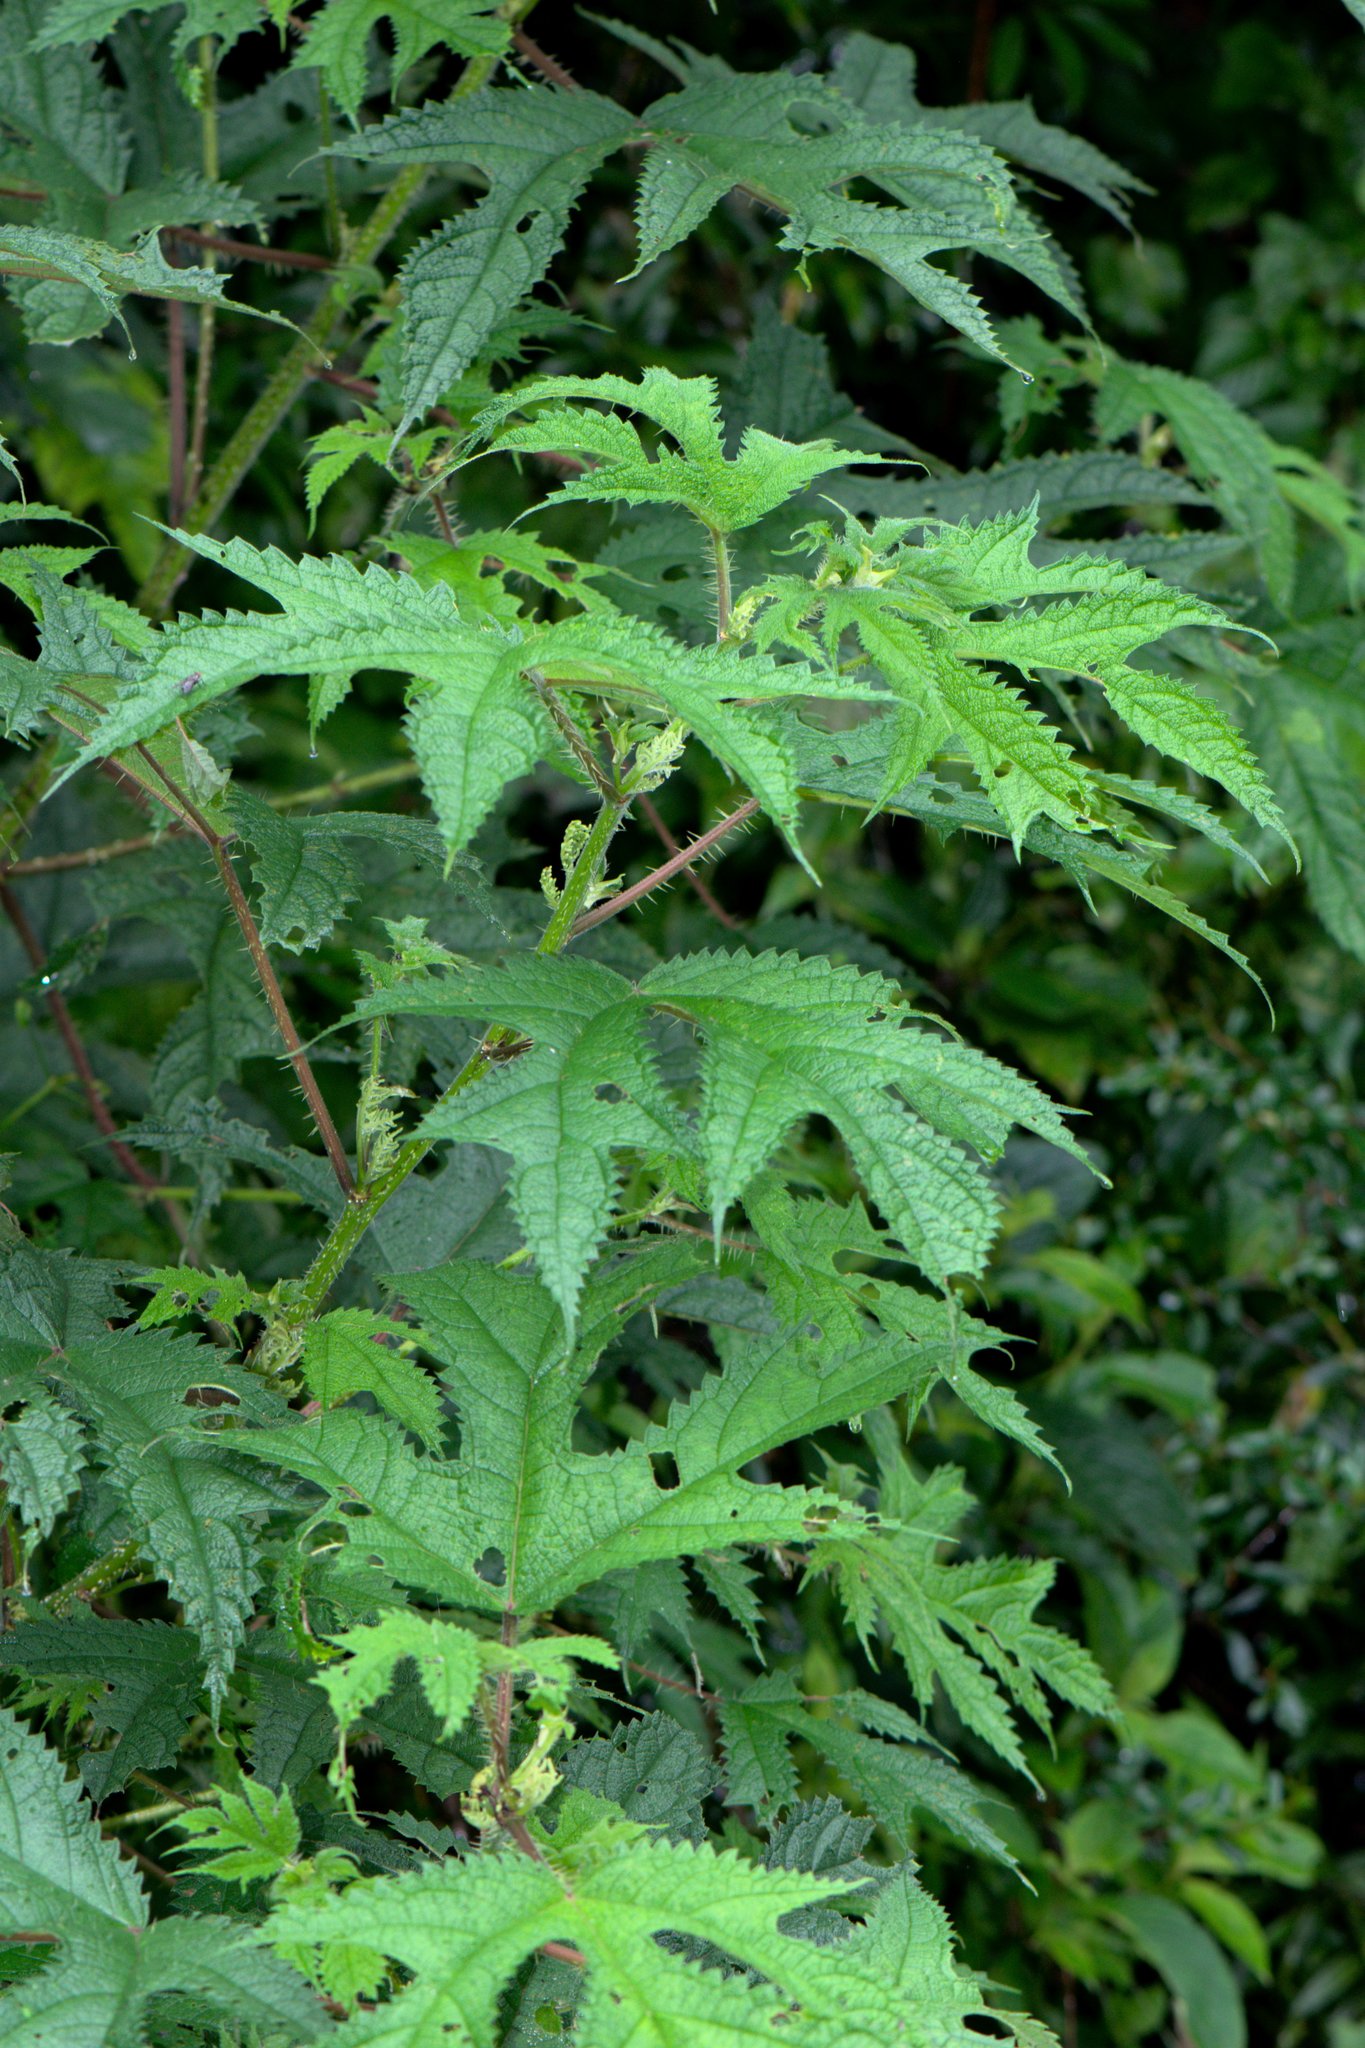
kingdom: Plantae
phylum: Tracheophyta
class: Magnoliopsida
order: Rosales
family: Urticaceae
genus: Girardinia
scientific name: Girardinia diversifolia
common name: Himalayan-nettle
